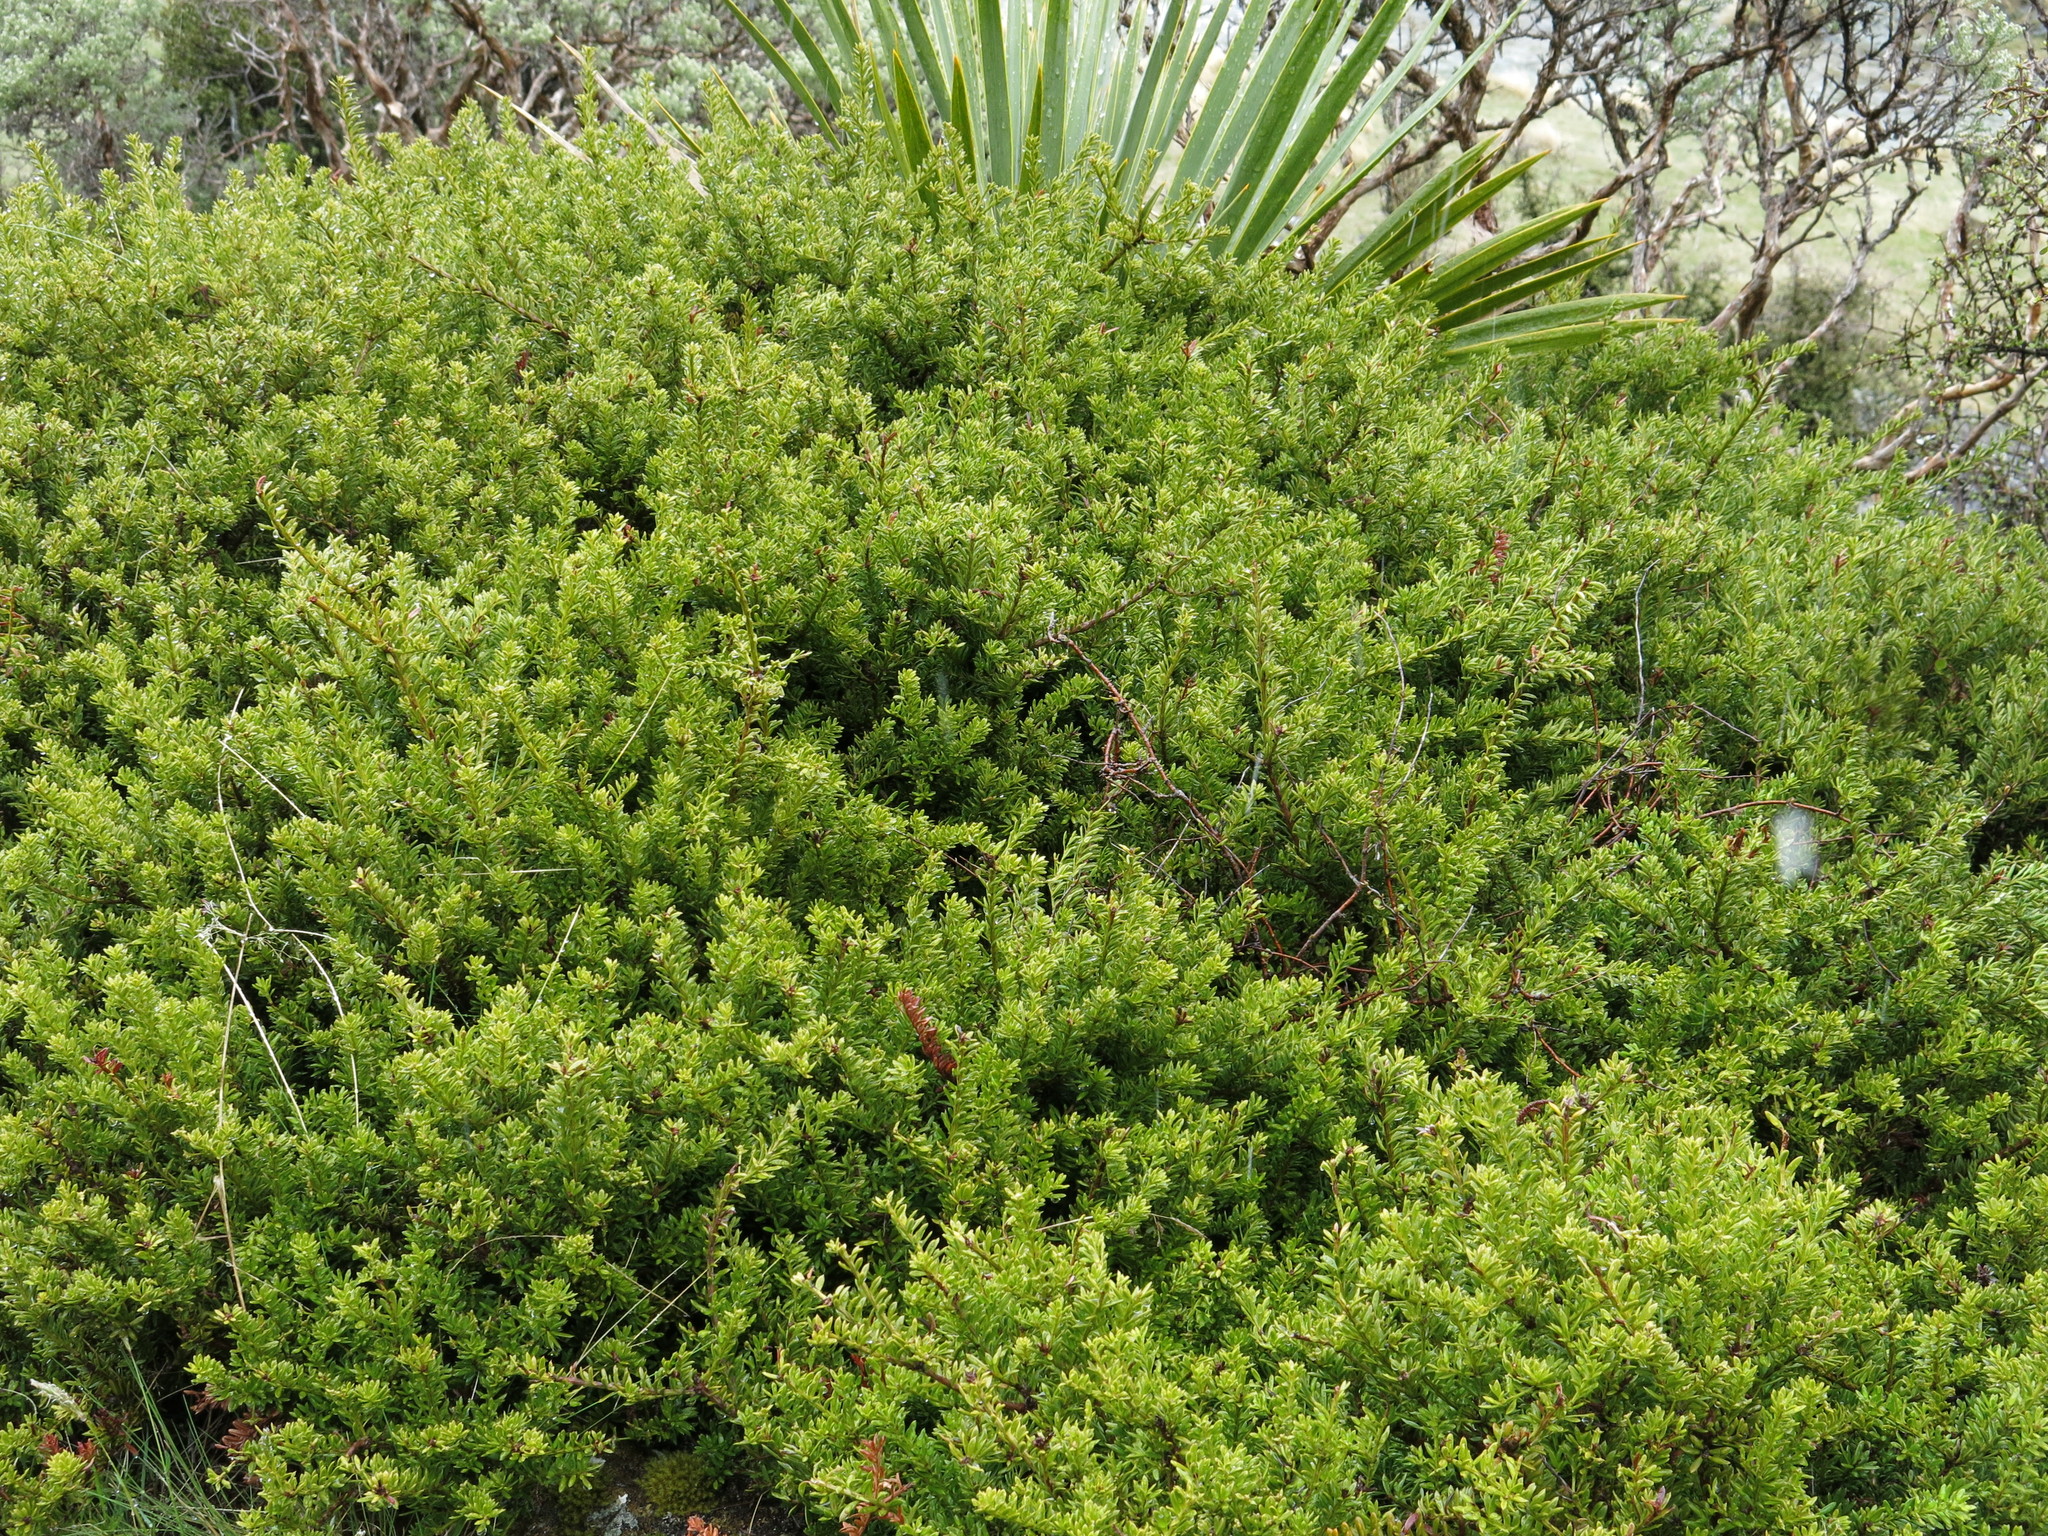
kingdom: Plantae
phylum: Tracheophyta
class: Pinopsida
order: Pinales
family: Podocarpaceae
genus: Podocarpus
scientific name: Podocarpus nivalis
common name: Alpine totara
